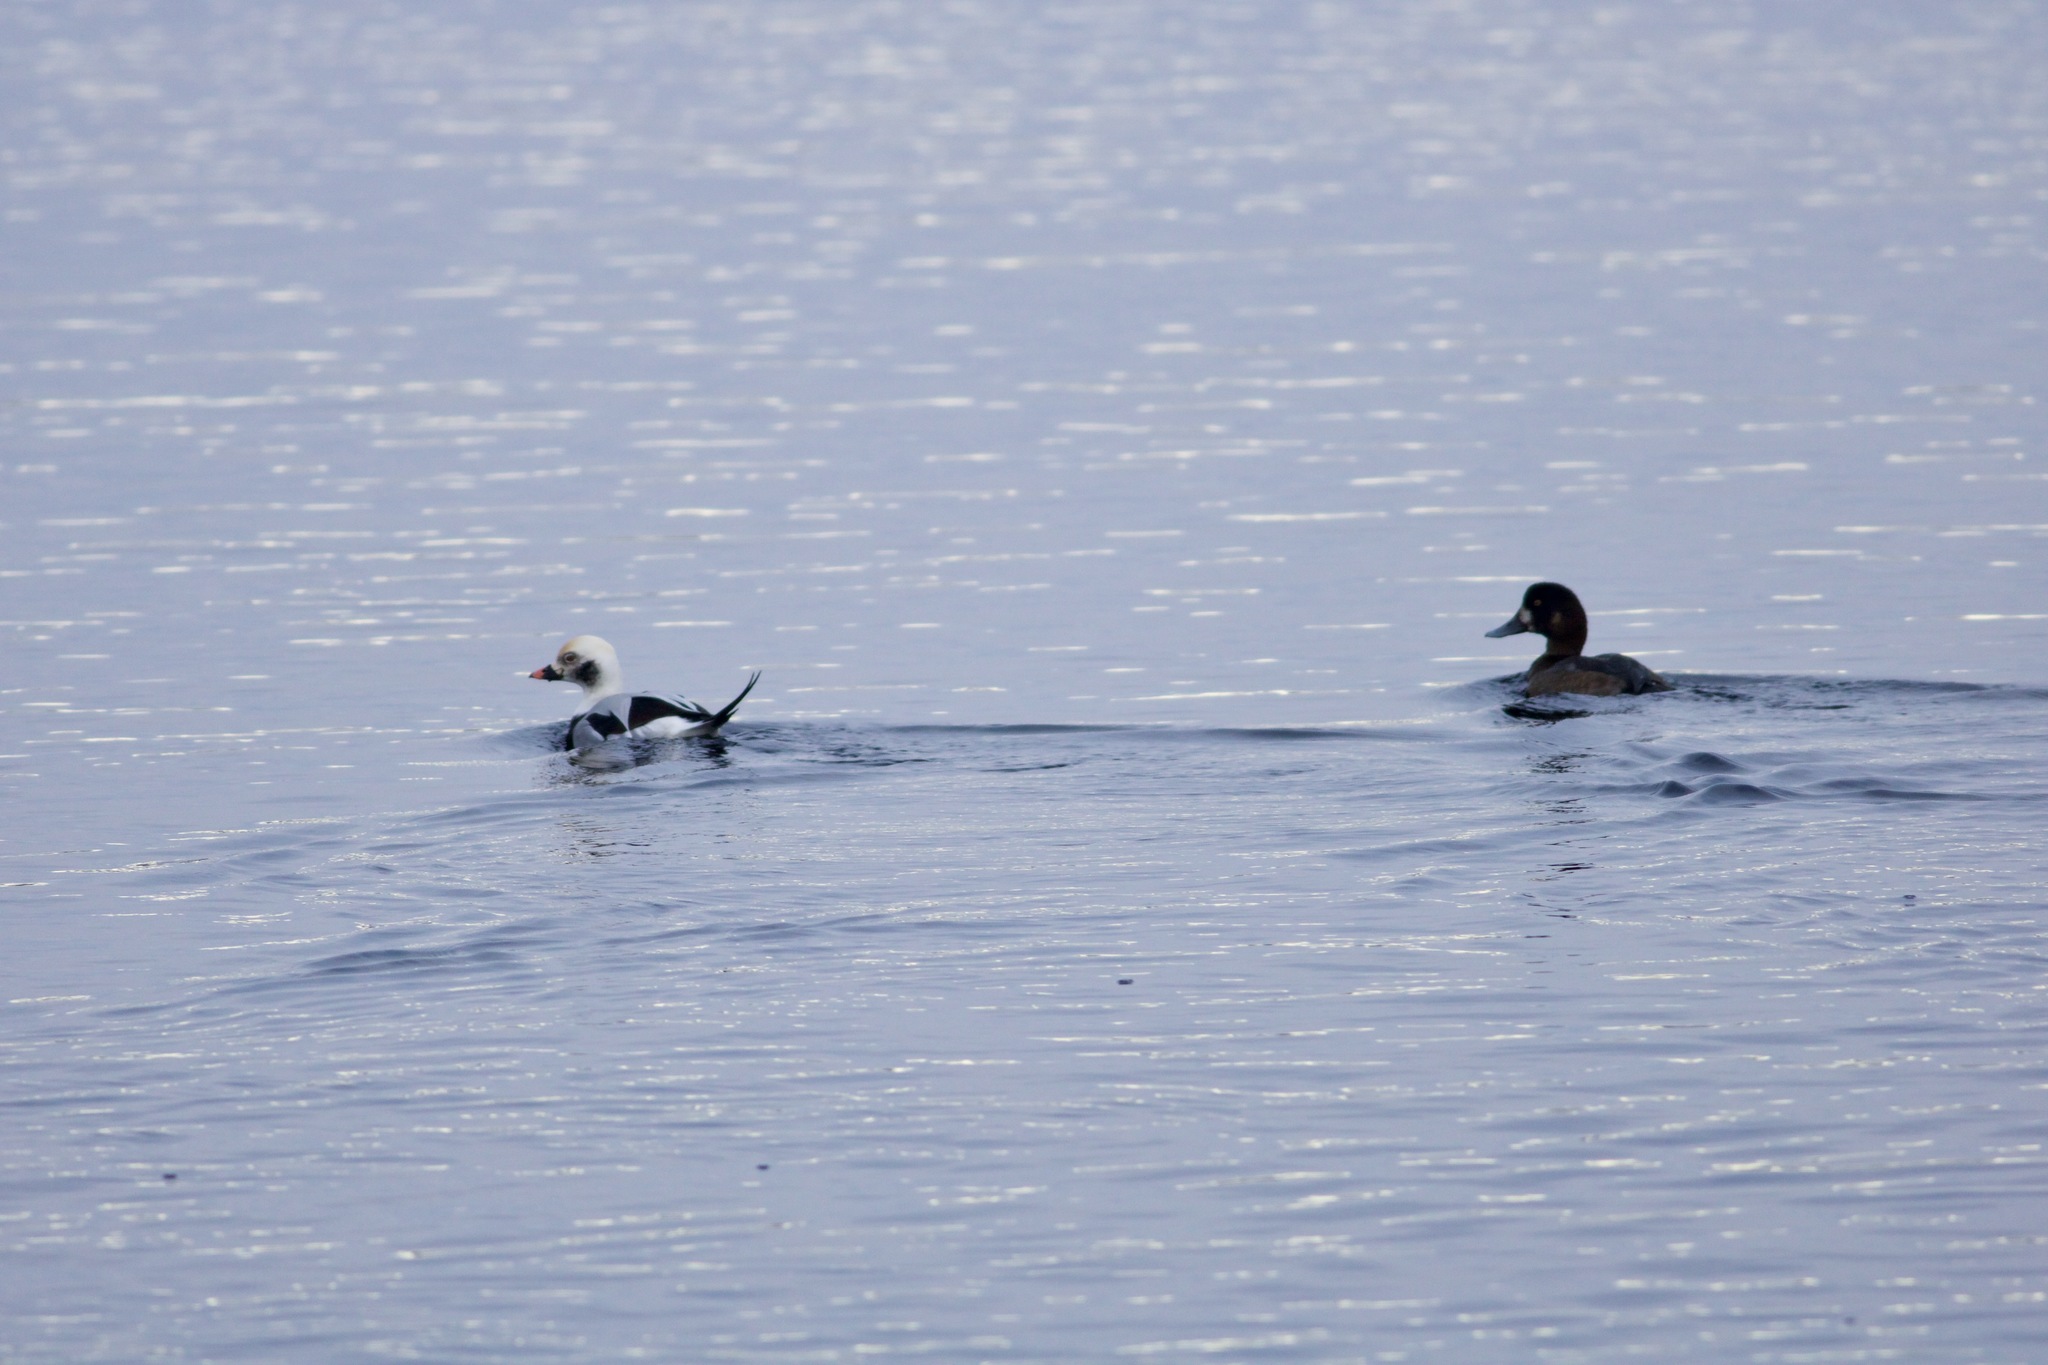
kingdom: Animalia
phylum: Chordata
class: Aves
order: Anseriformes
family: Anatidae
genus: Clangula
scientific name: Clangula hyemalis
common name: Long-tailed duck
